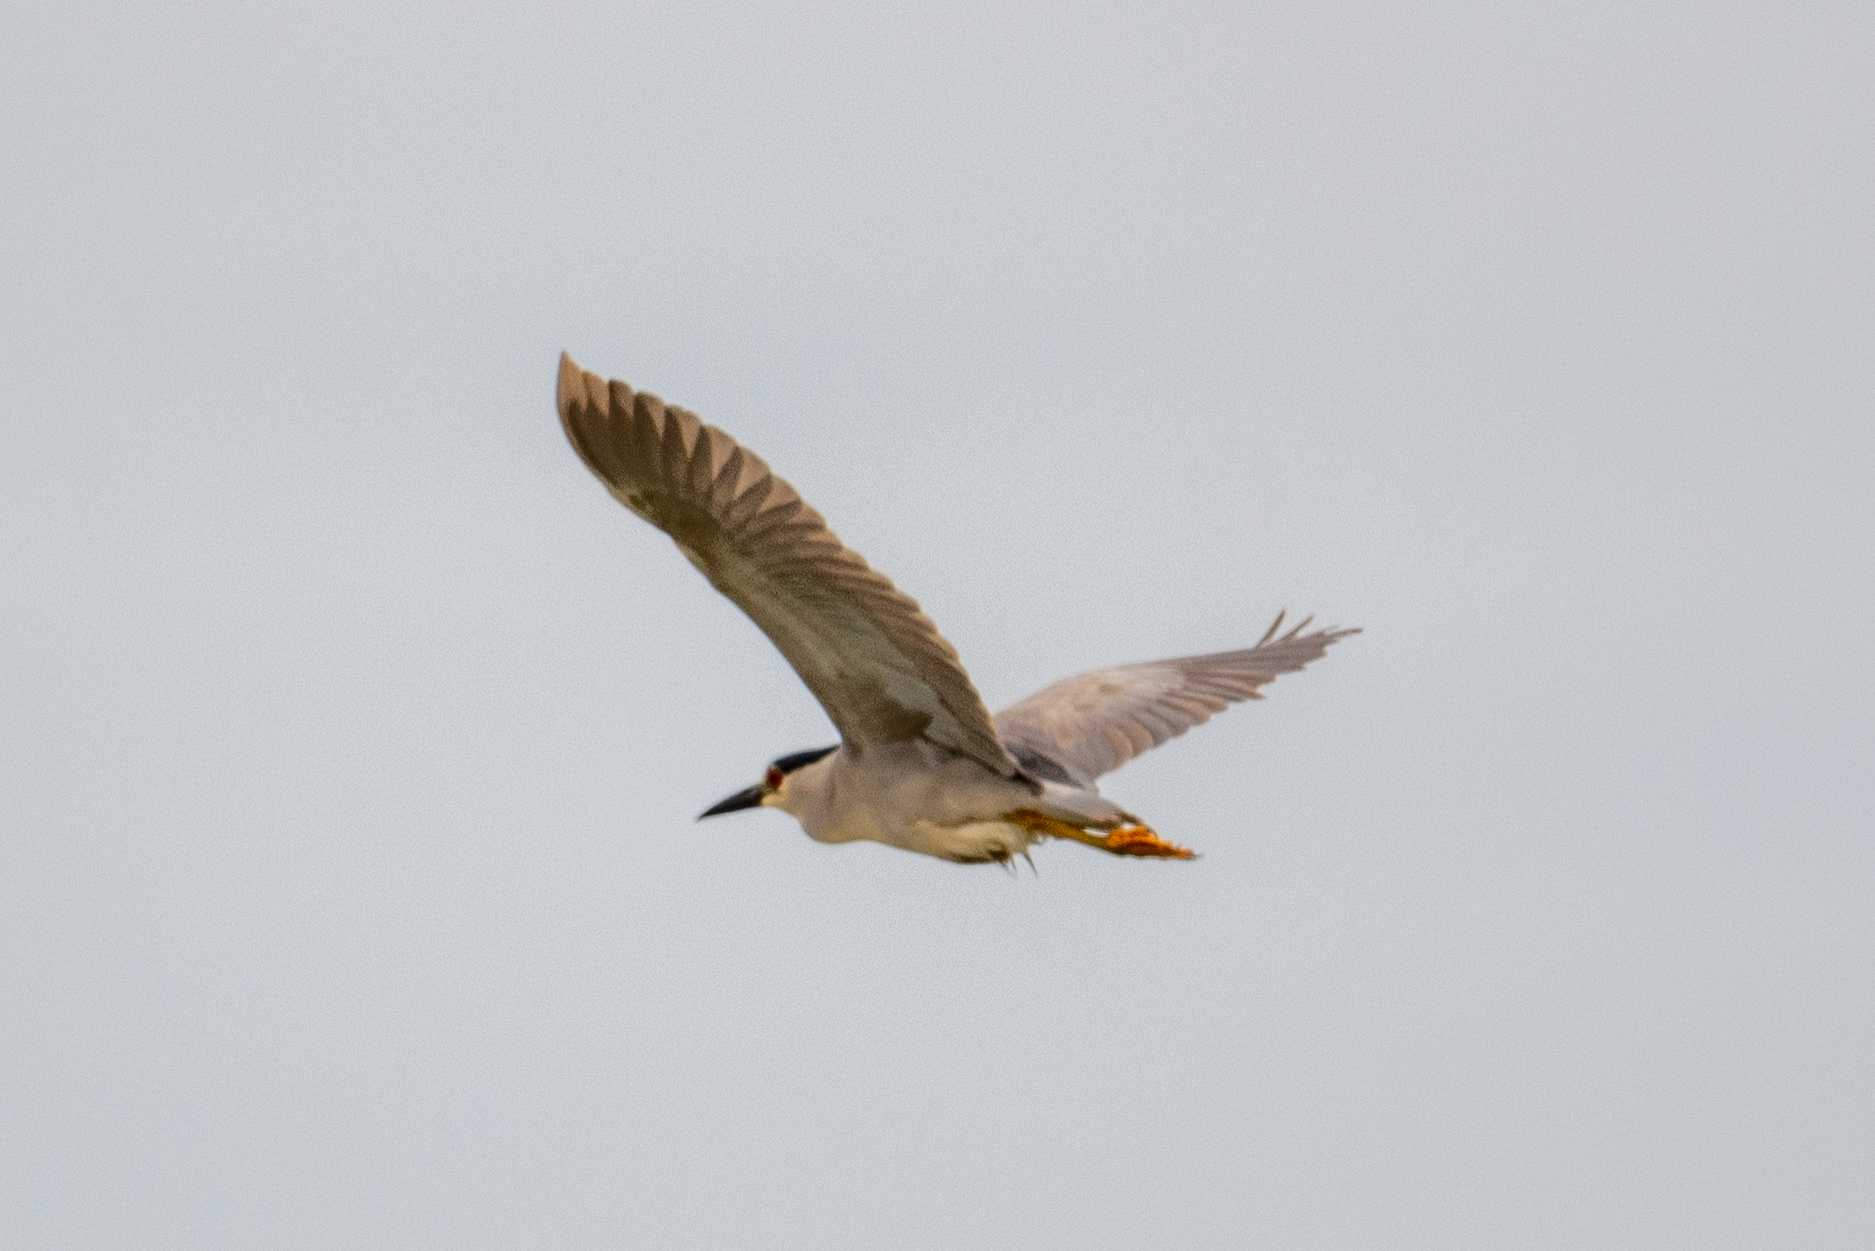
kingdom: Animalia
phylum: Chordata
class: Aves
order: Pelecaniformes
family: Ardeidae
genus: Nycticorax
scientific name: Nycticorax nycticorax
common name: Black-crowned night heron
